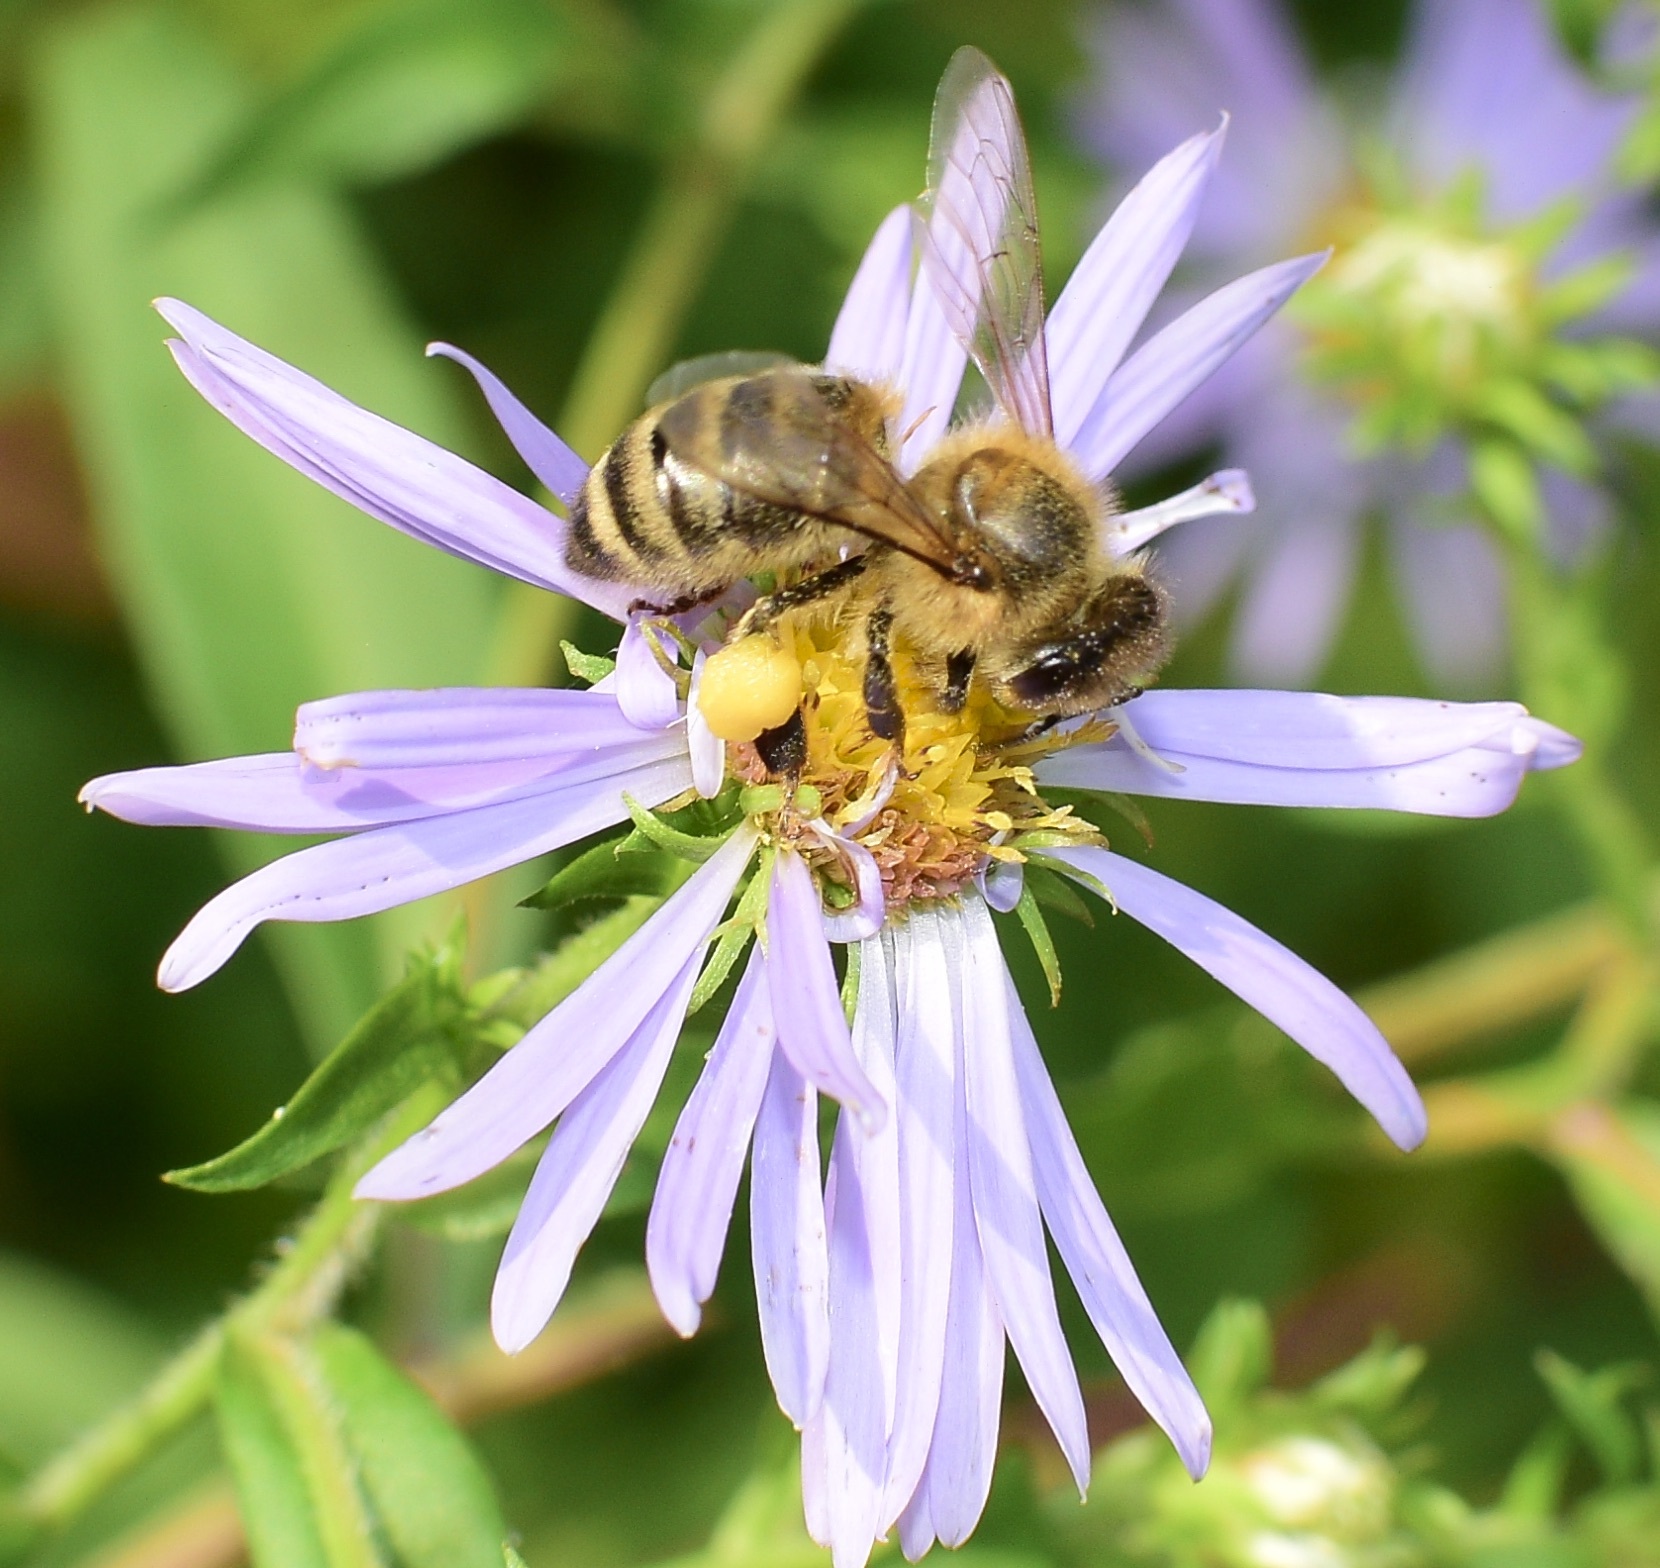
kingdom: Animalia
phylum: Arthropoda
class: Insecta
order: Hymenoptera
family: Apidae
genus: Apis
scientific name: Apis mellifera
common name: Honey bee
